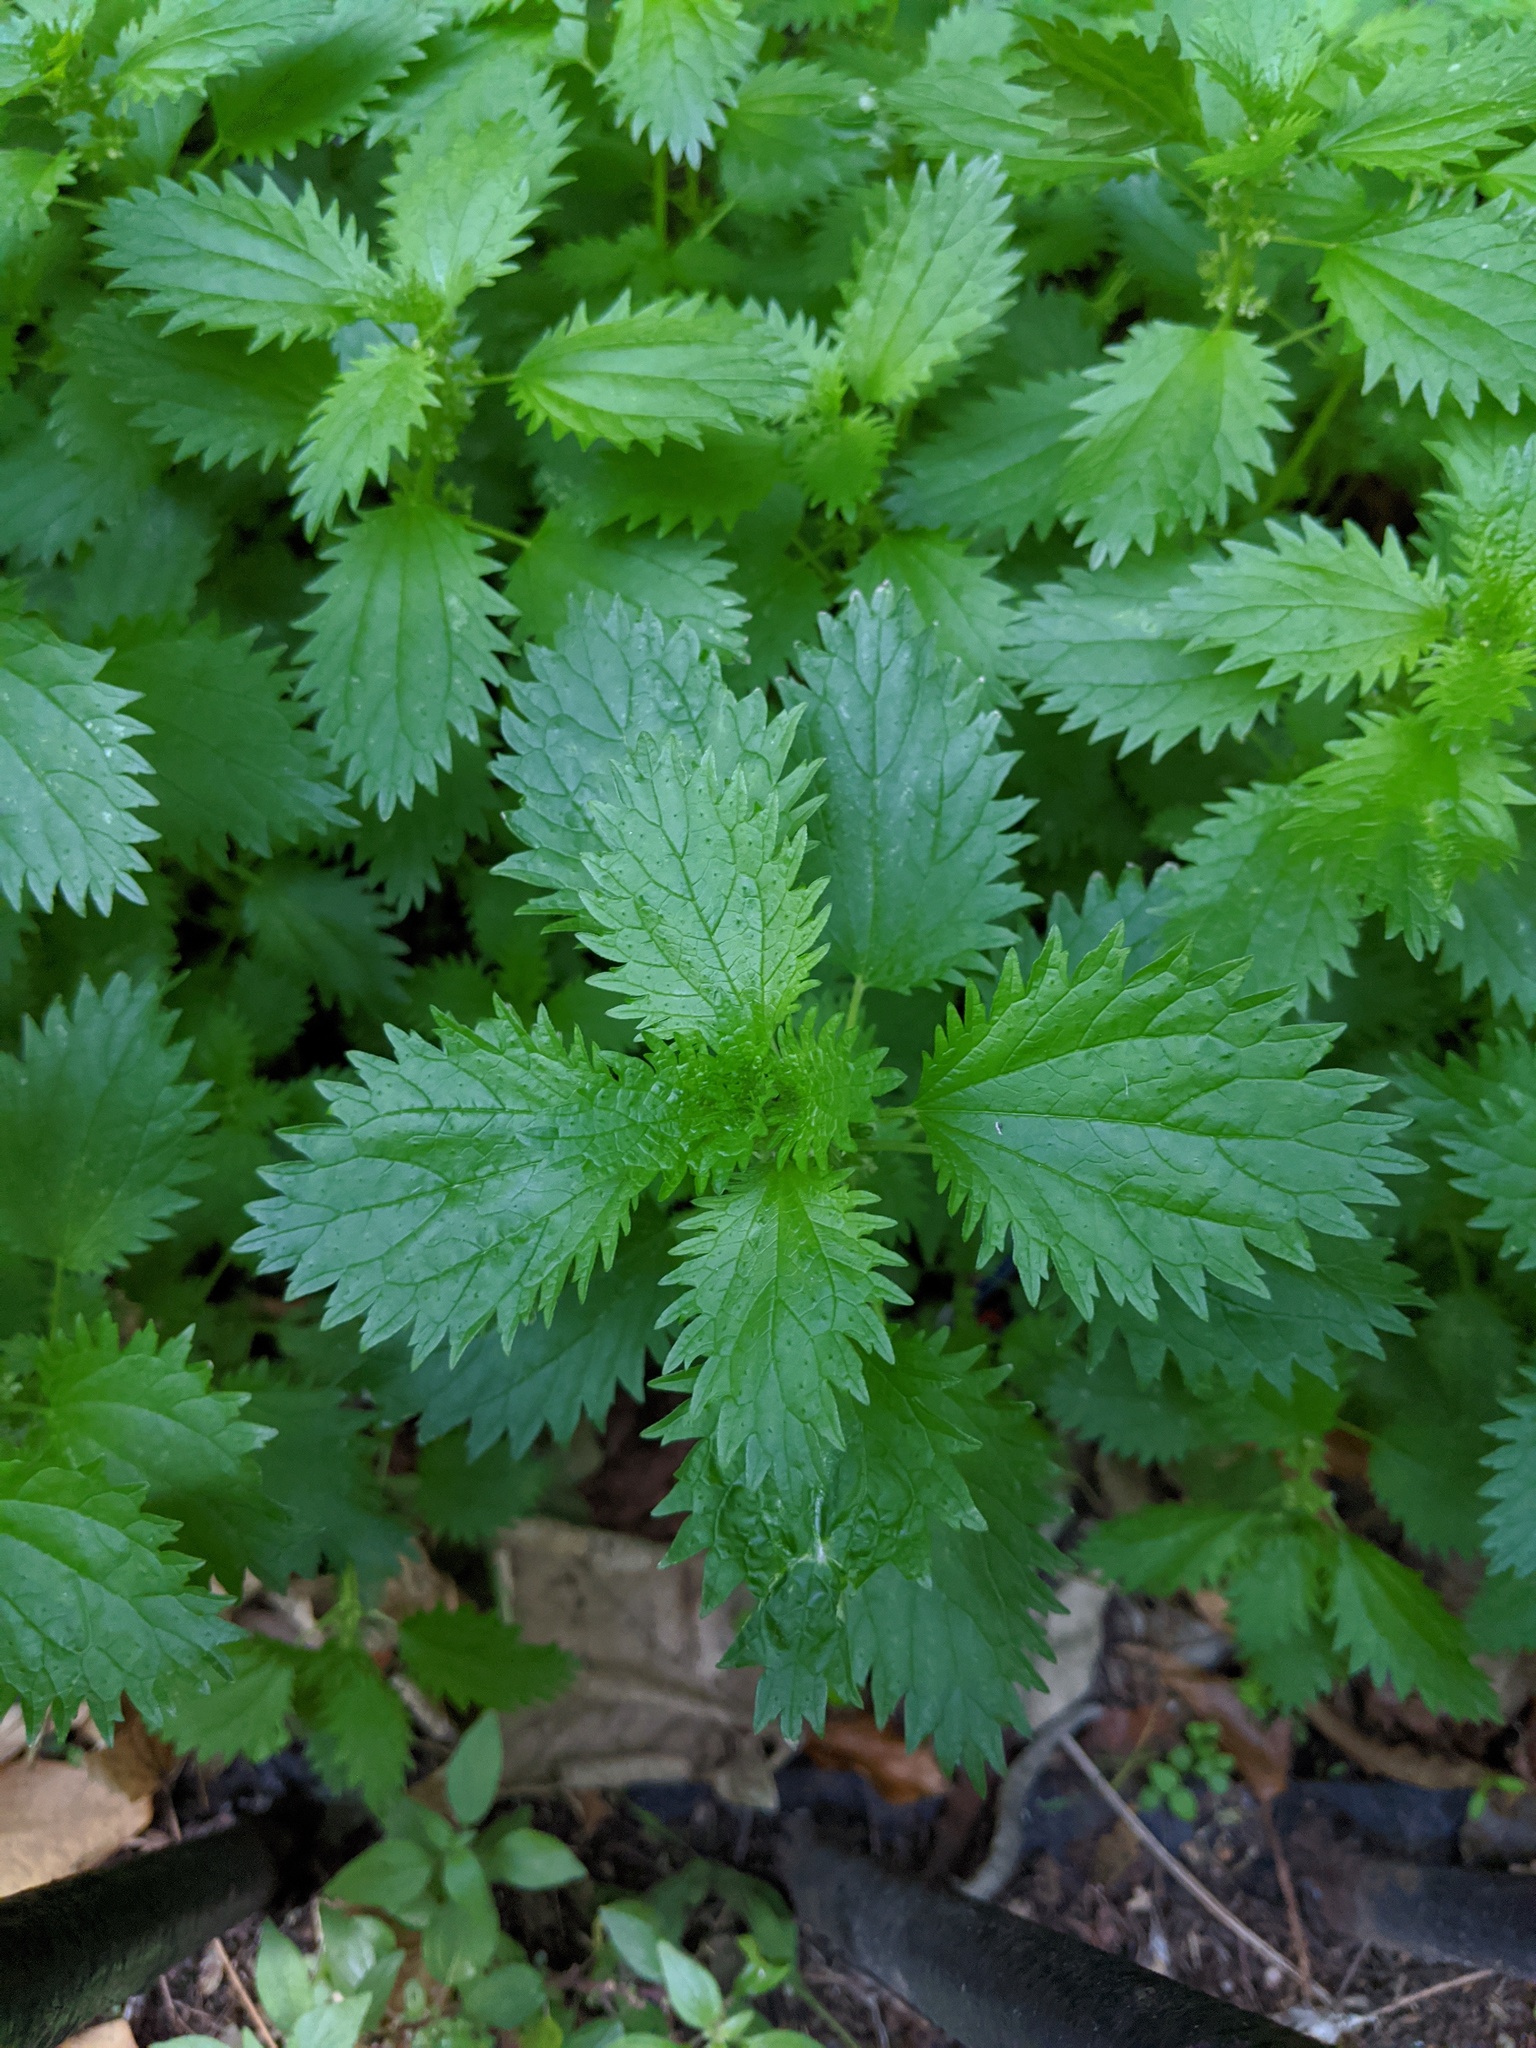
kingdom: Plantae
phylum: Tracheophyta
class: Magnoliopsida
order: Rosales
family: Urticaceae
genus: Urtica
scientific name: Urtica urens
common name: Dwarf nettle
